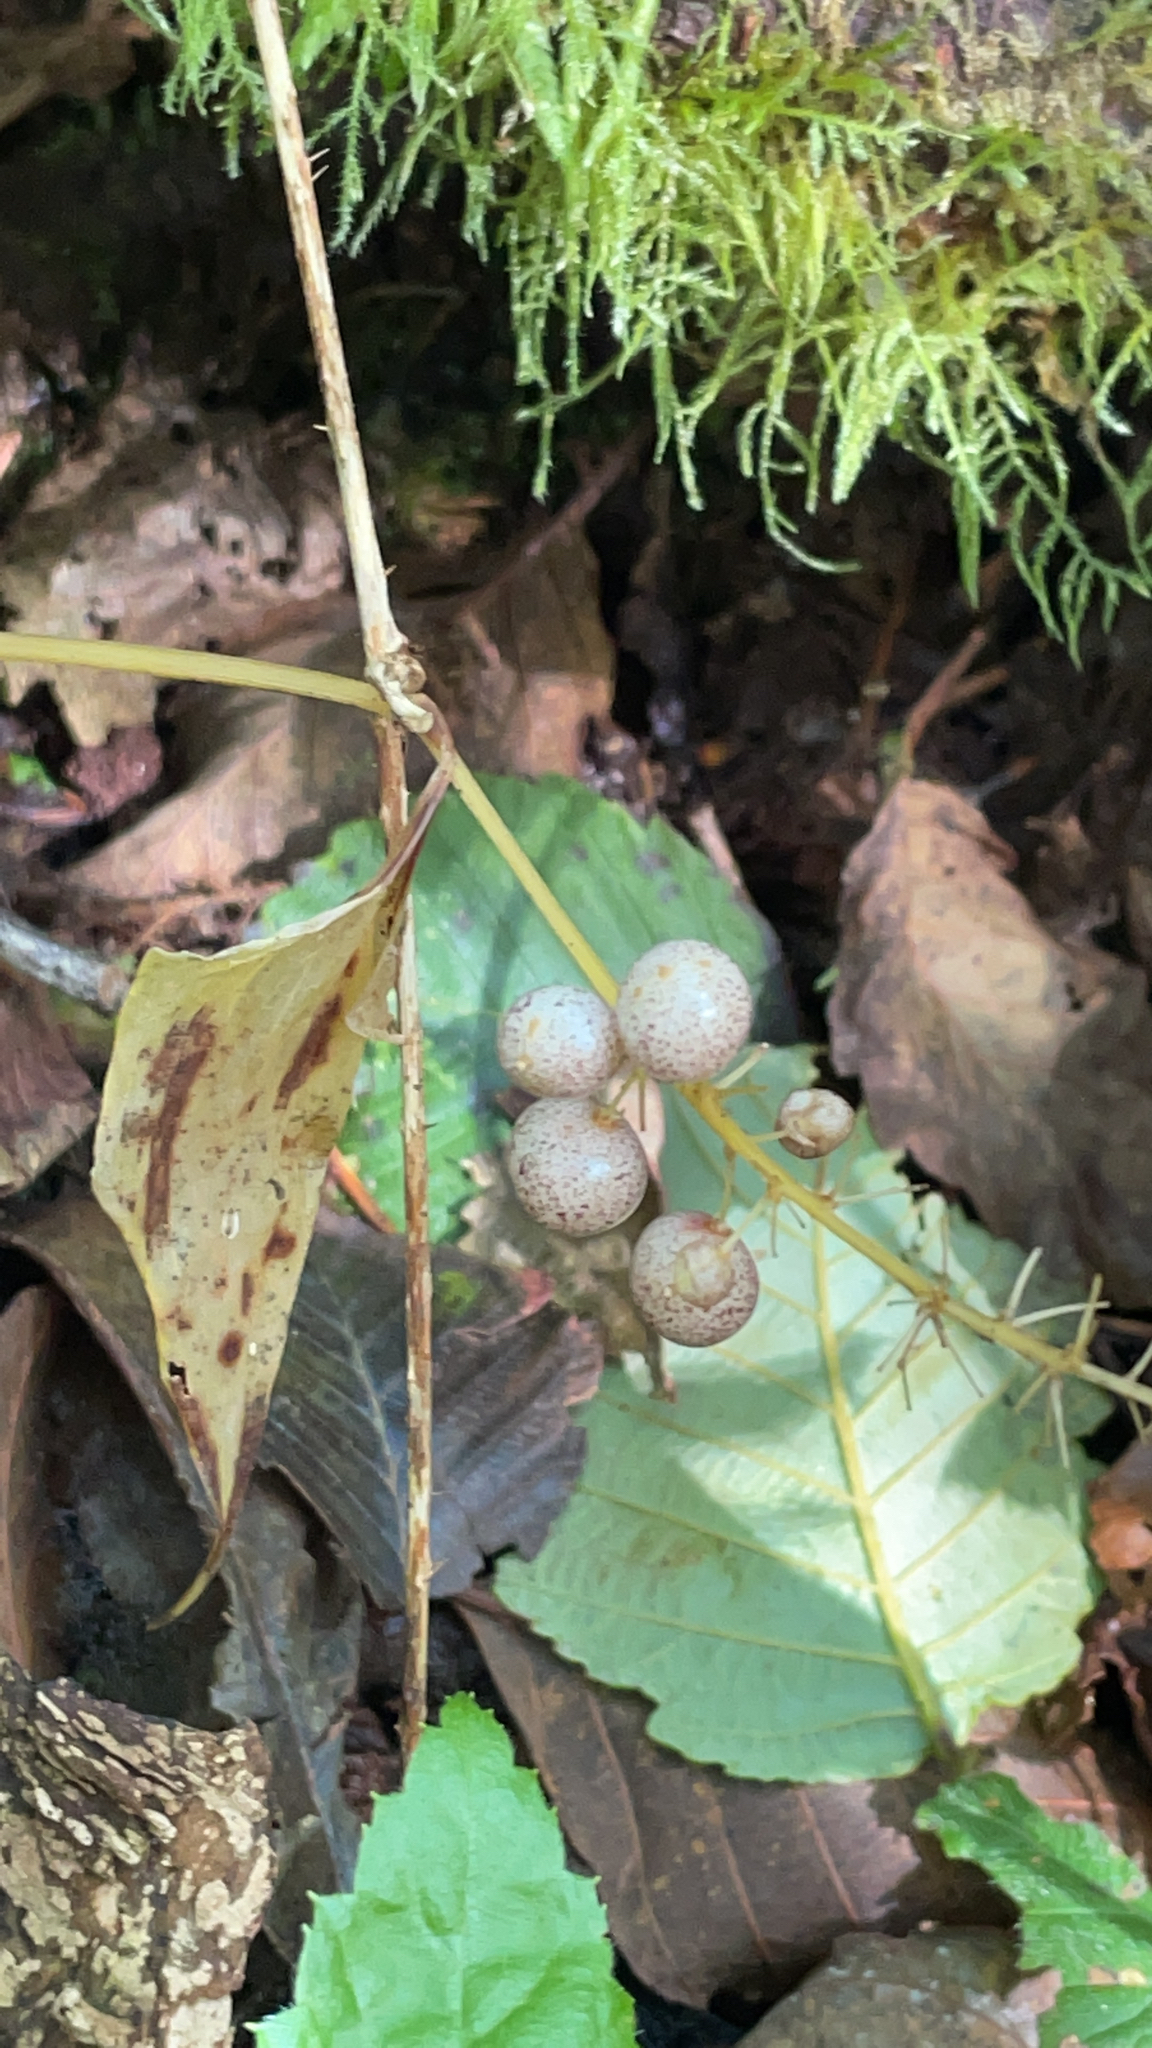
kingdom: Plantae
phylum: Tracheophyta
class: Liliopsida
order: Asparagales
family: Asparagaceae
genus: Maianthemum
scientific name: Maianthemum dilatatum
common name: False lily-of-the-valley
